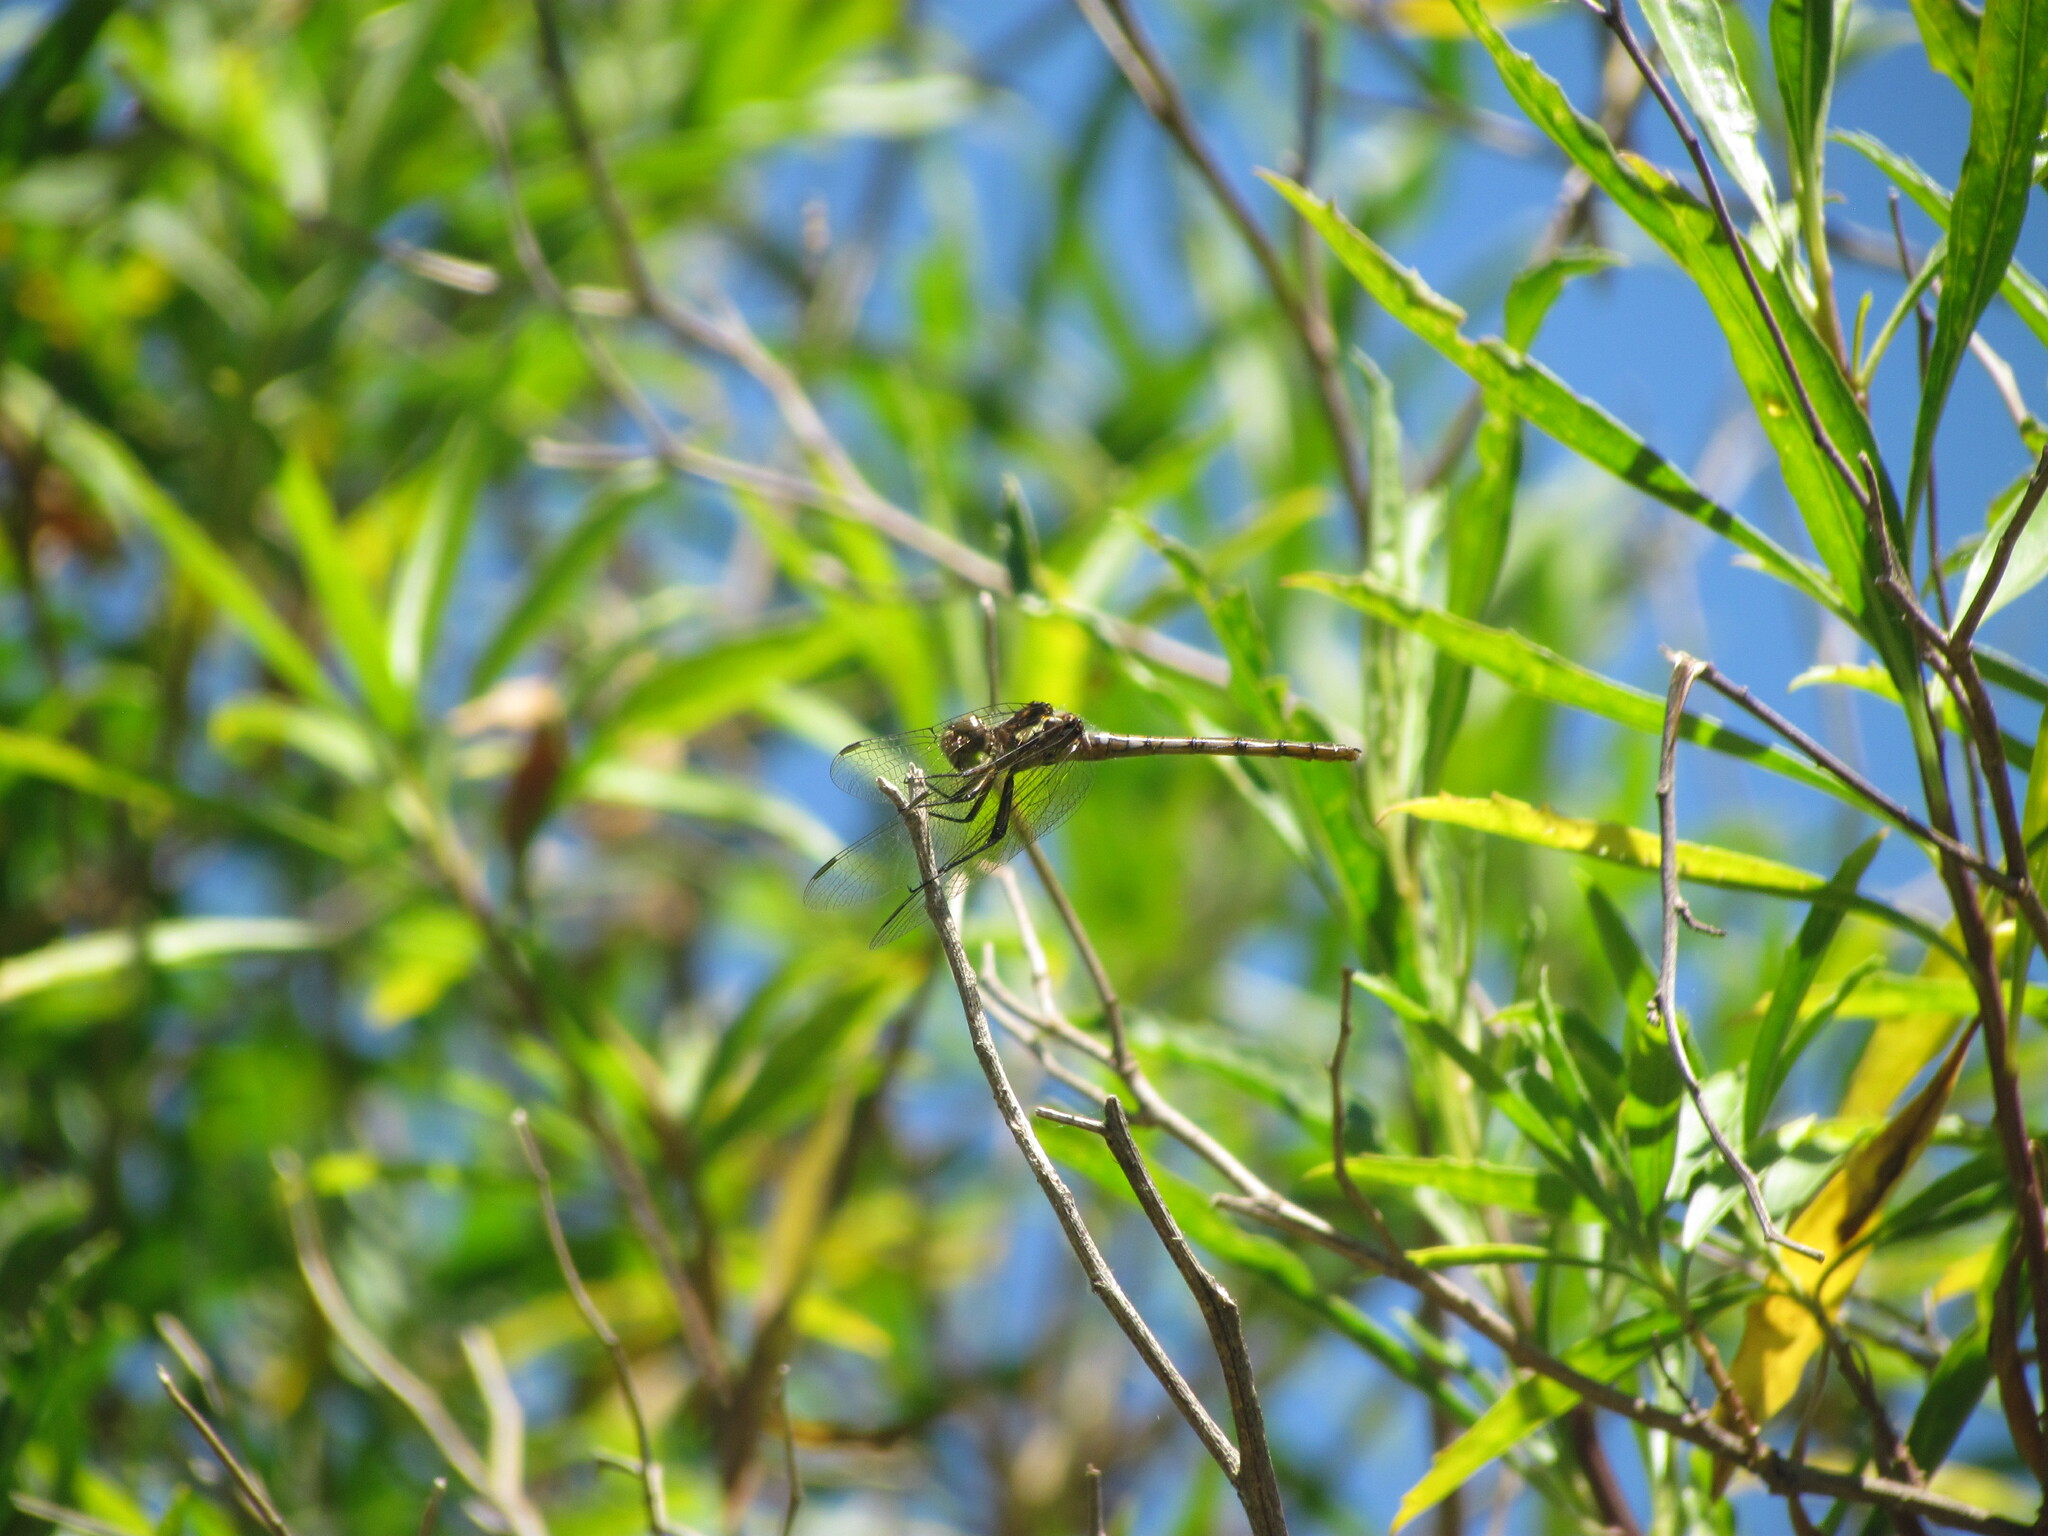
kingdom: Animalia
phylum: Arthropoda
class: Insecta
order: Odonata
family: Libellulidae
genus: Micrathyria
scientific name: Micrathyria ringueleti
